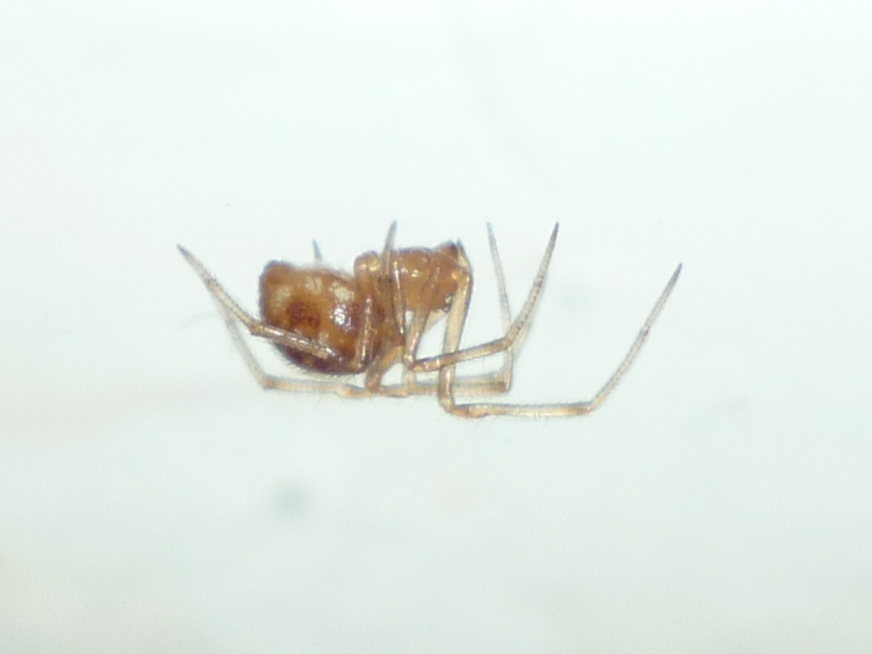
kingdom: Animalia
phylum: Arthropoda
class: Arachnida
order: Araneae
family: Theridiidae
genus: Steatoda
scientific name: Steatoda triangulosa
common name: Triangulate bud spider
